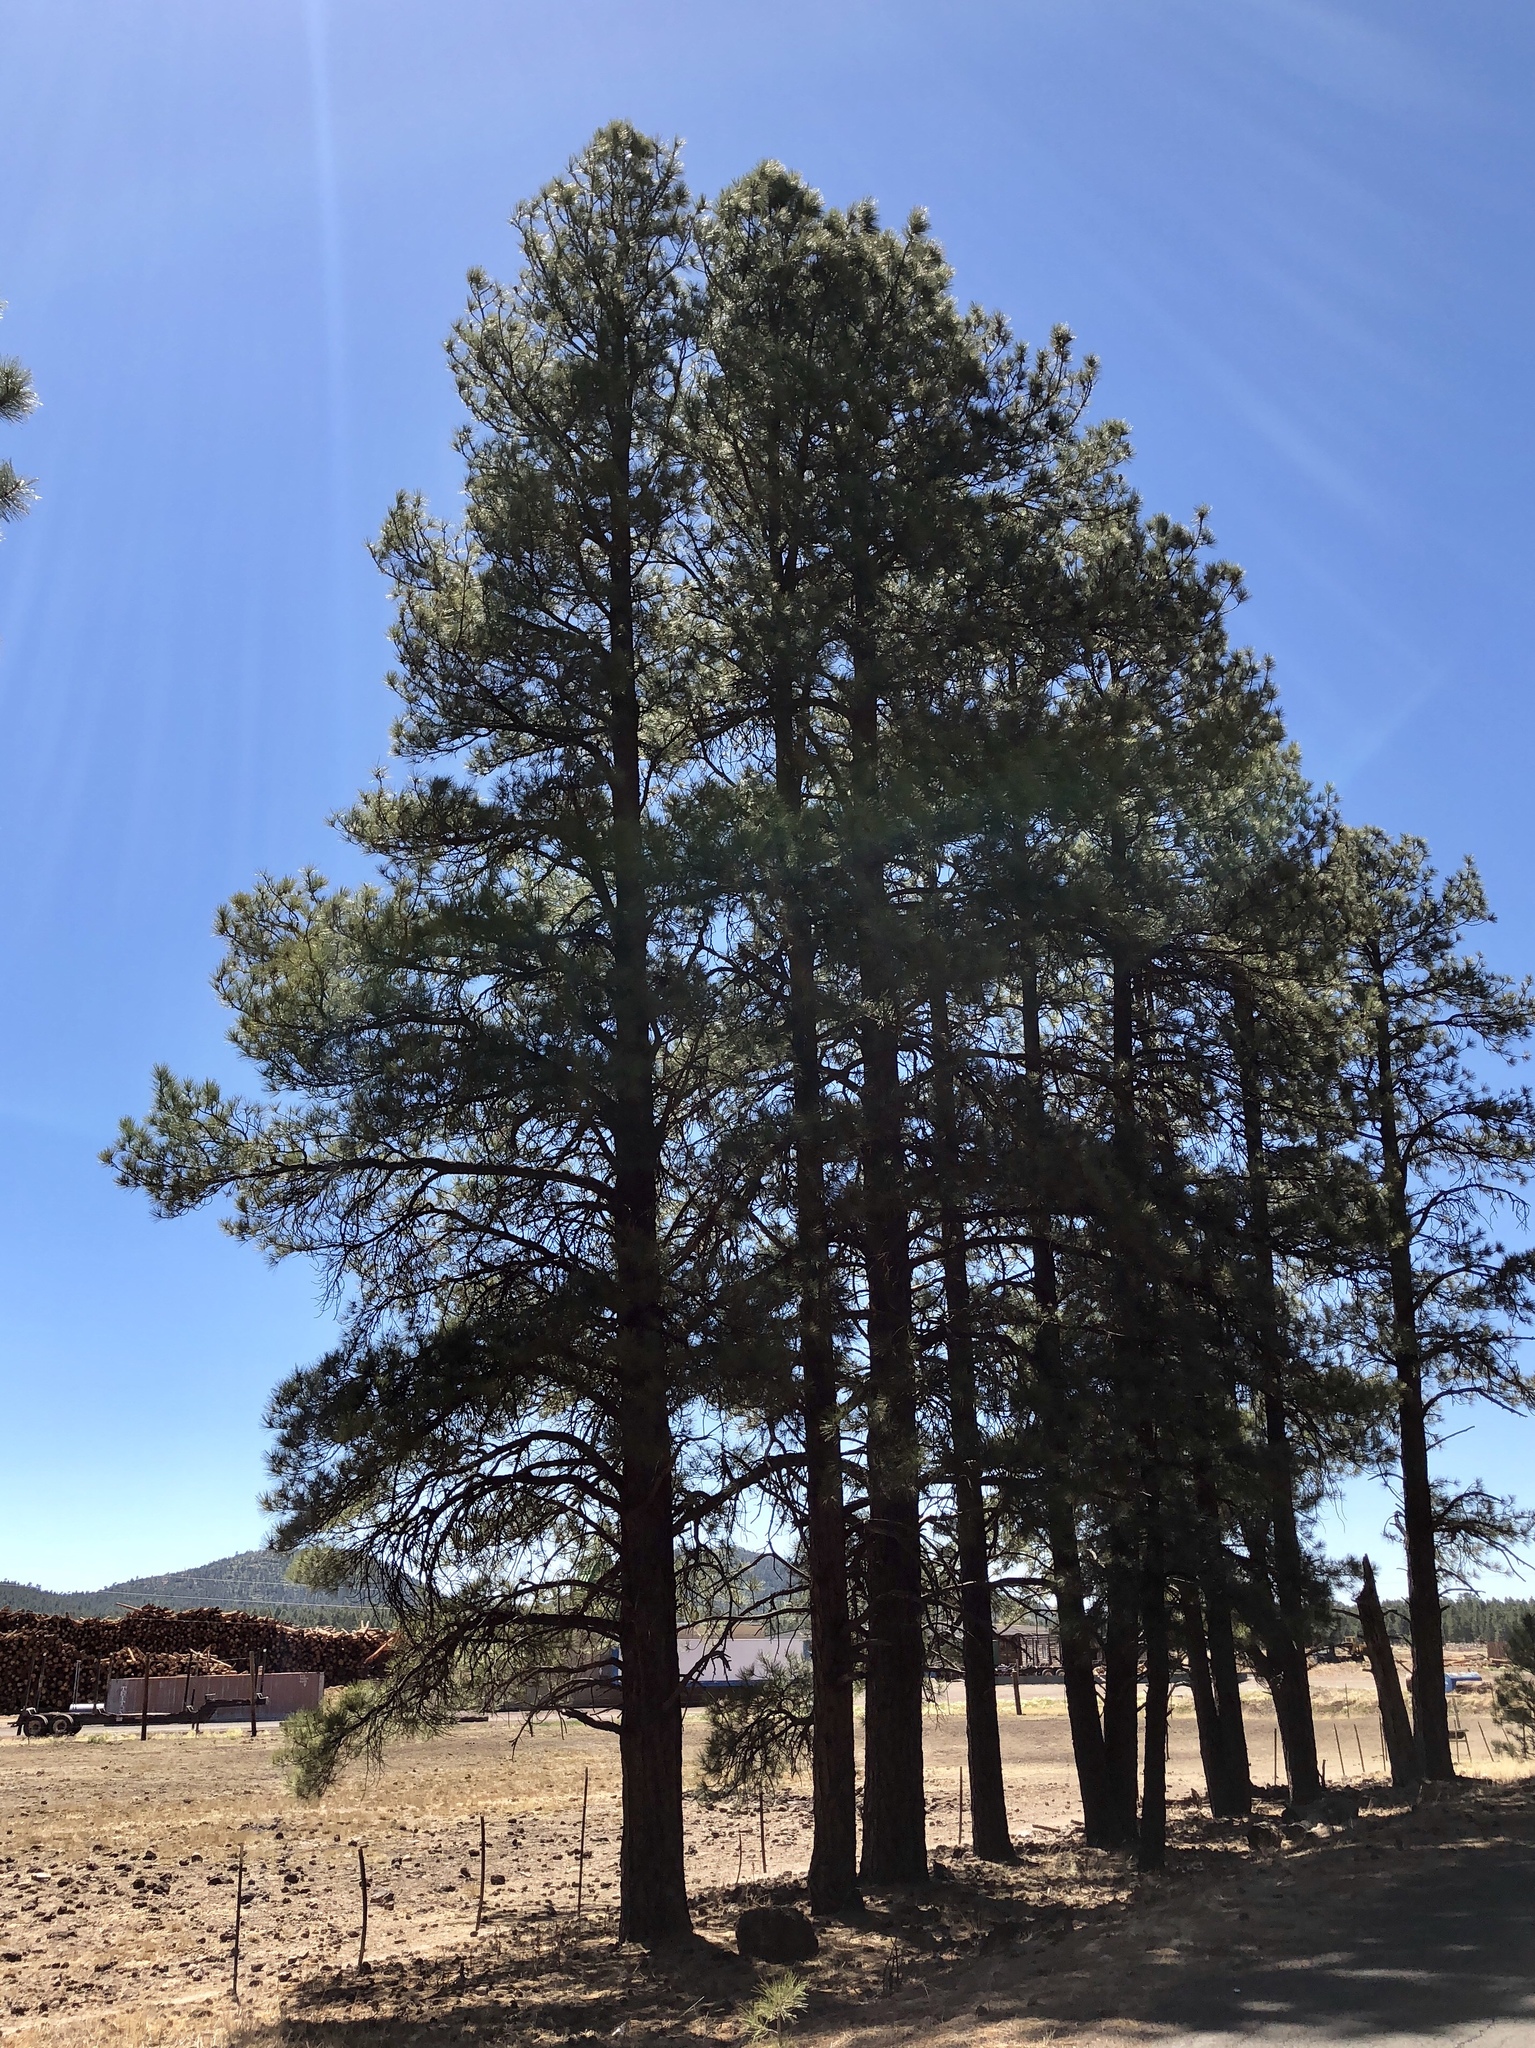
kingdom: Plantae
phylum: Tracheophyta
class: Pinopsida
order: Pinales
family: Pinaceae
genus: Pinus
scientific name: Pinus ponderosa
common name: Western yellow-pine
